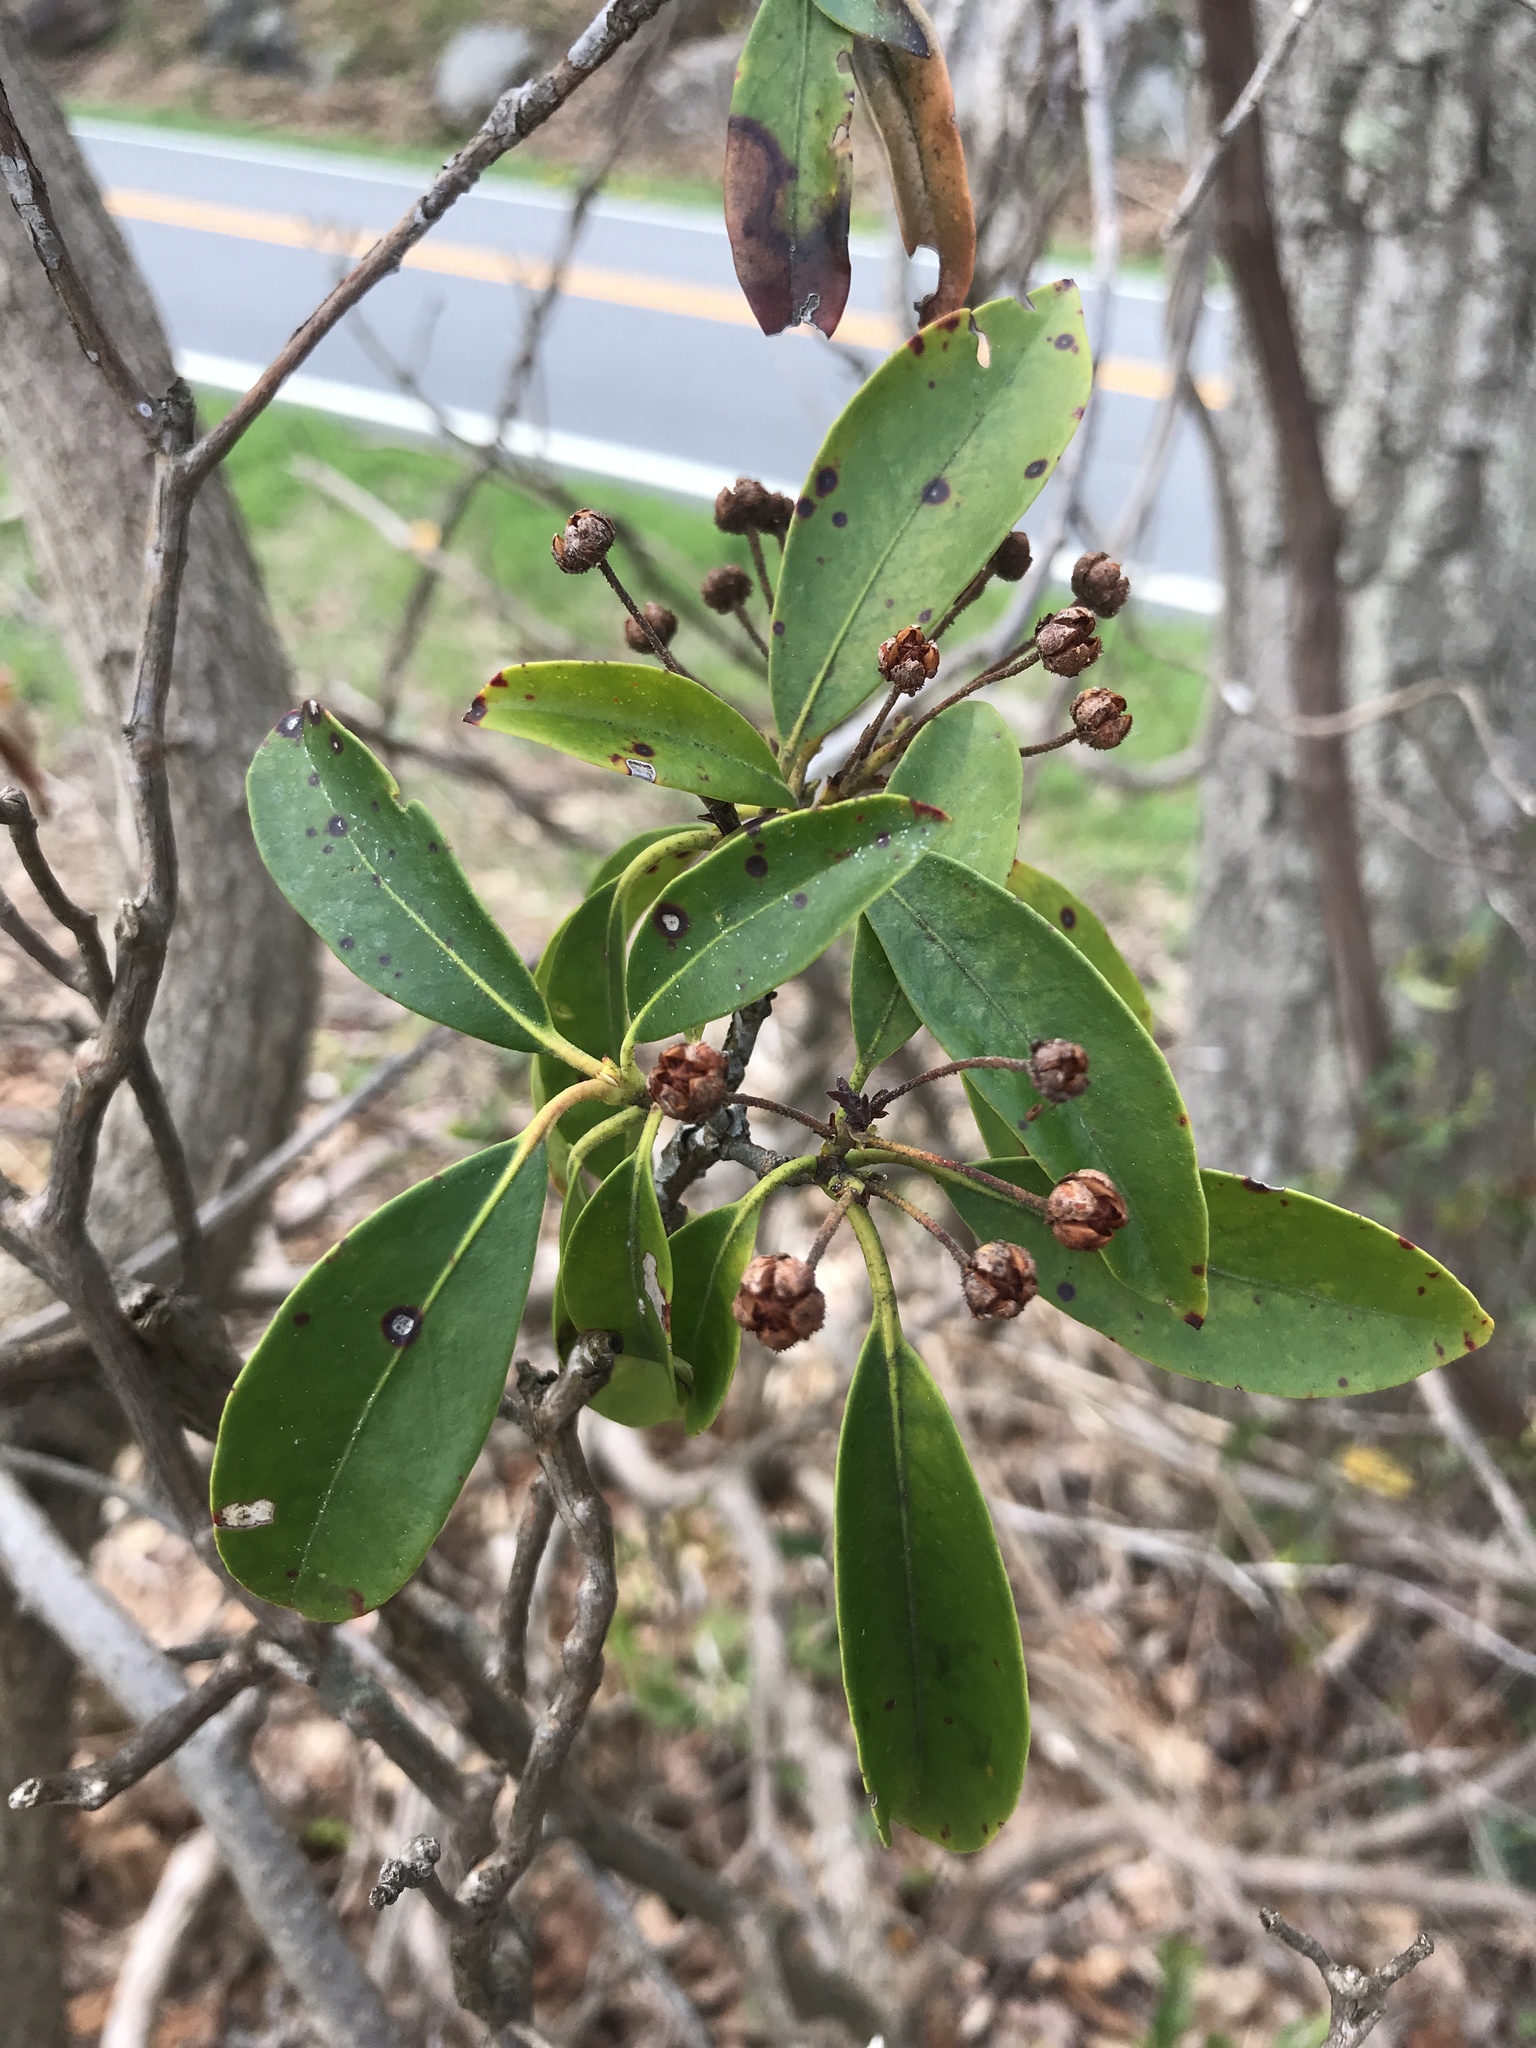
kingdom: Plantae
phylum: Tracheophyta
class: Magnoliopsida
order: Ericales
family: Ericaceae
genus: Kalmia
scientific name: Kalmia latifolia
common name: Mountain-laurel
